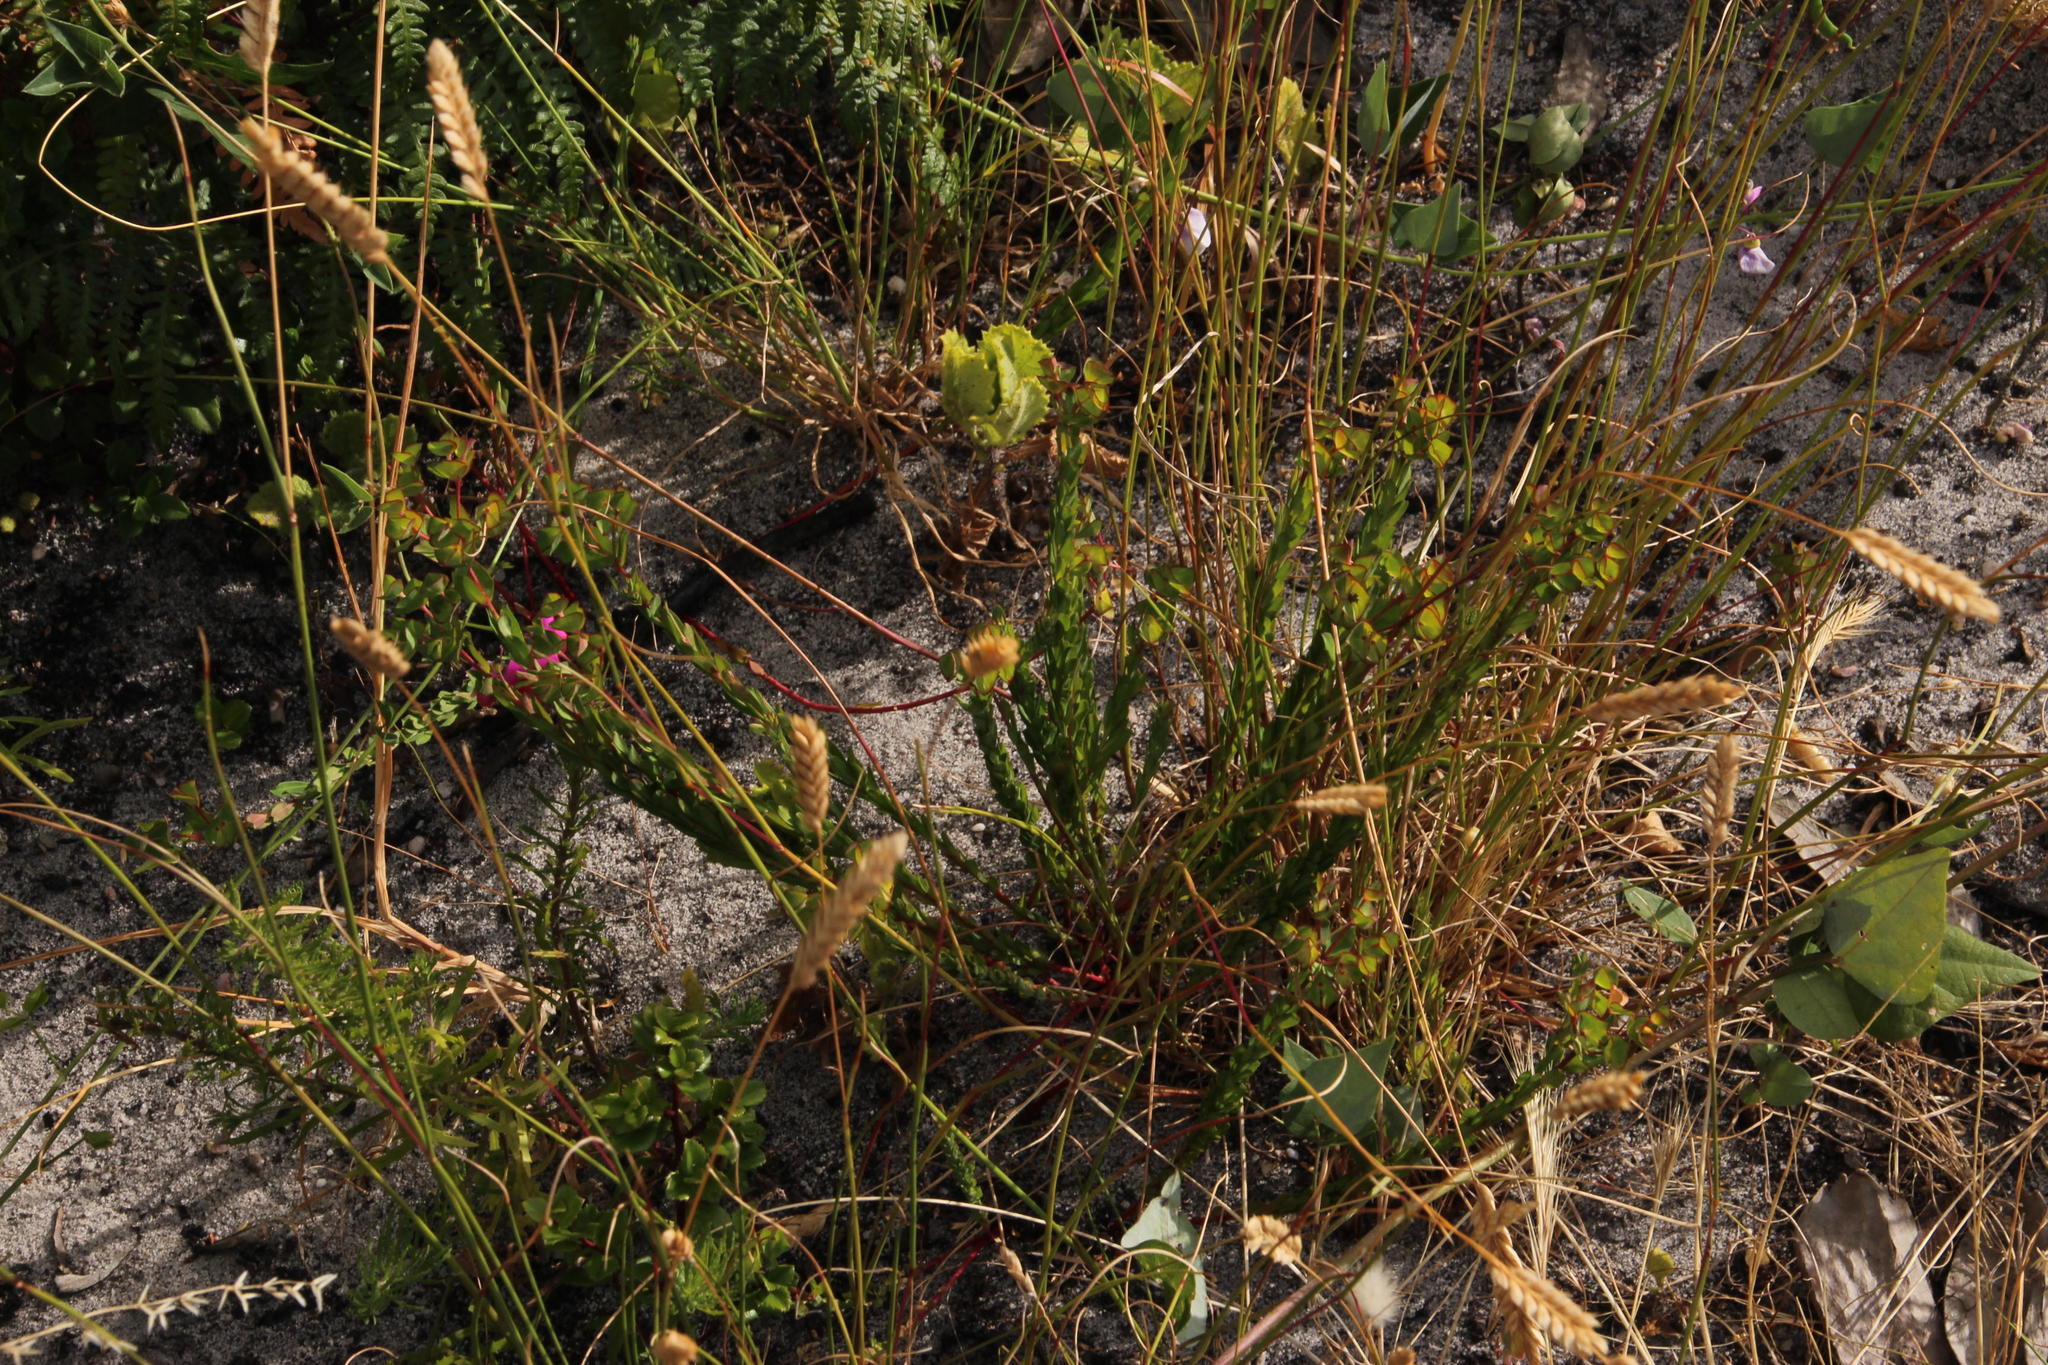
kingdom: Plantae
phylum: Tracheophyta
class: Magnoliopsida
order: Malpighiales
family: Euphorbiaceae
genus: Euphorbia
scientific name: Euphorbia genistoides
